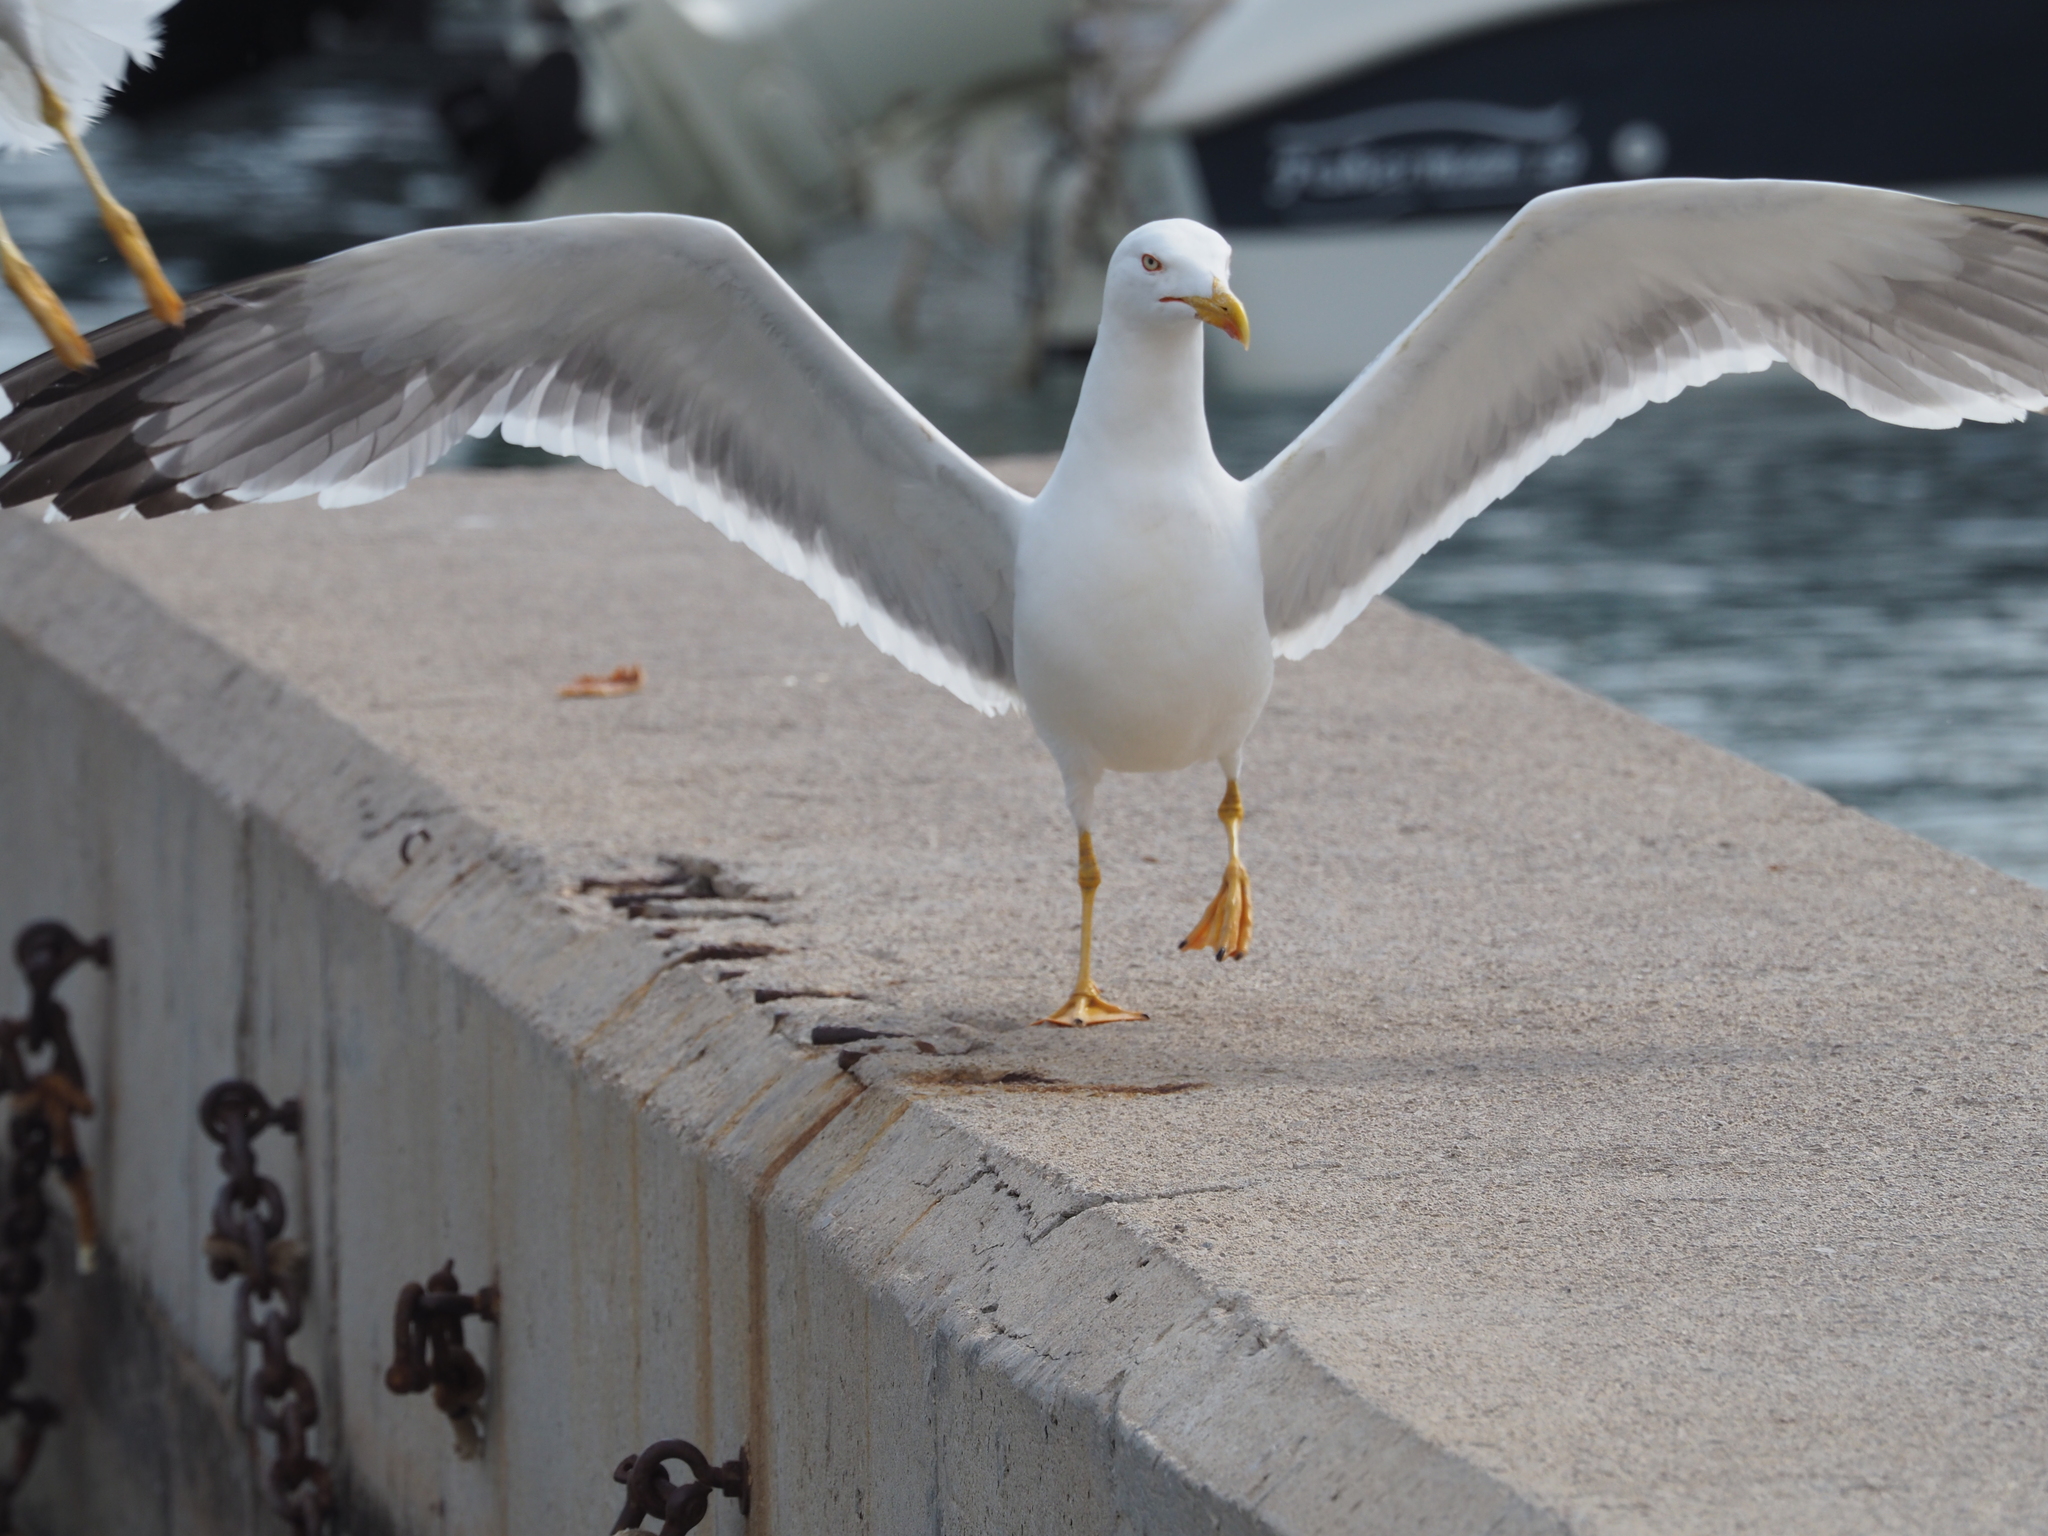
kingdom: Animalia
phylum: Chordata
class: Aves
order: Charadriiformes
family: Laridae
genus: Larus
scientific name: Larus michahellis
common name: Yellow-legged gull
